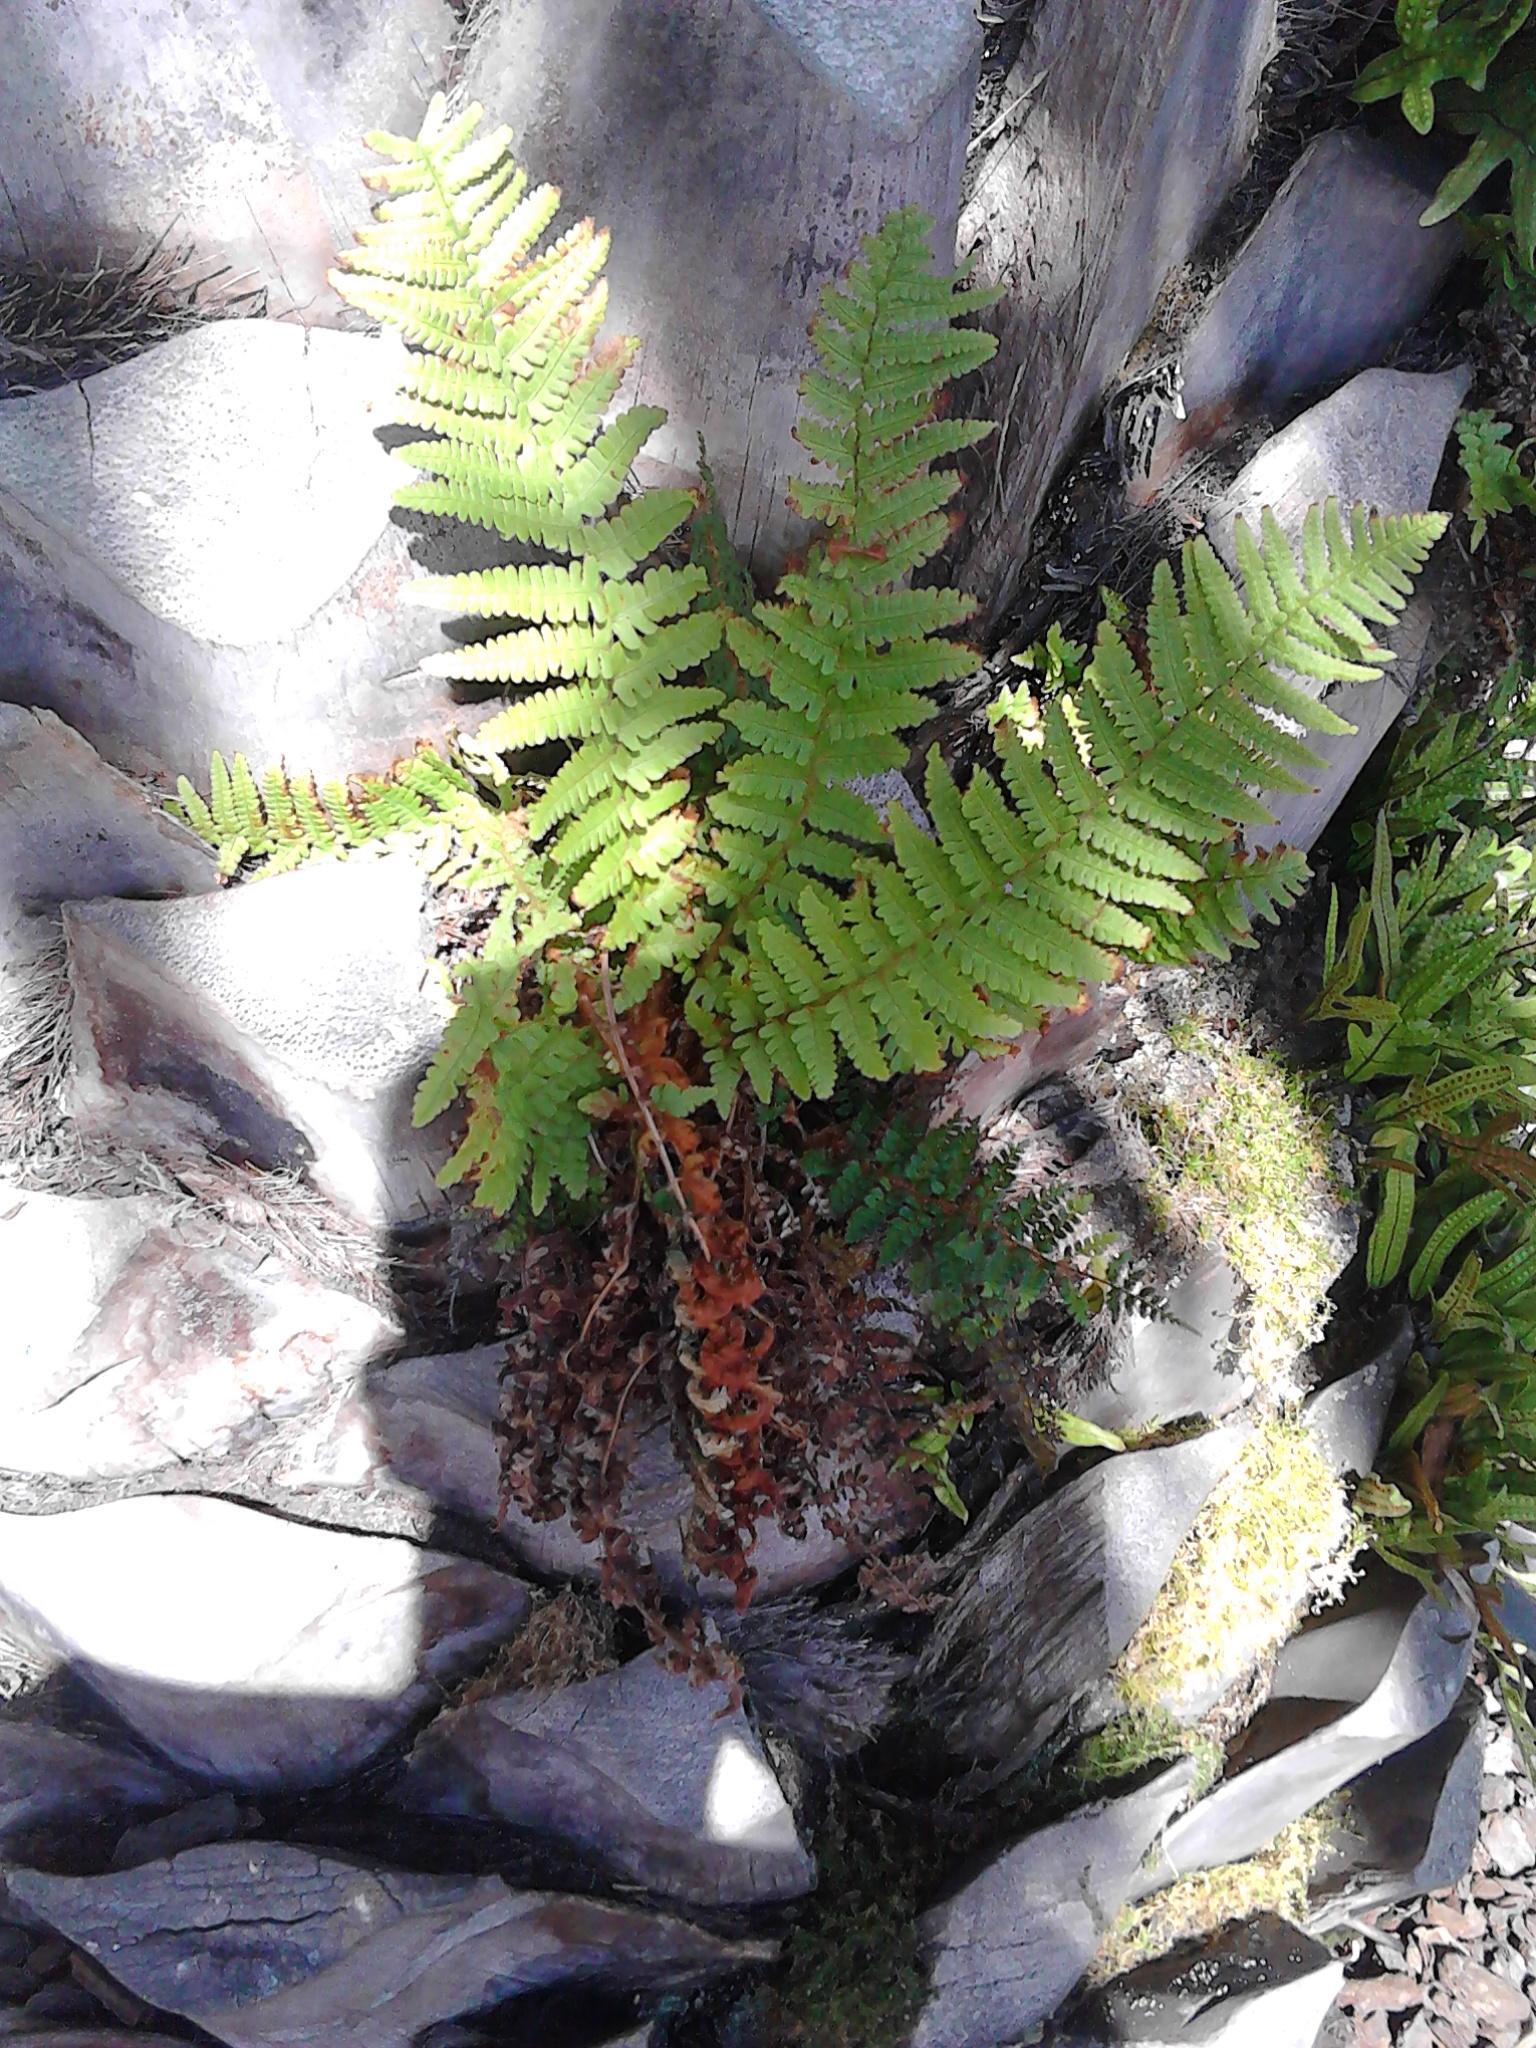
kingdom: Plantae
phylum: Tracheophyta
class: Polypodiopsida
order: Polypodiales
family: Dryopteridaceae
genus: Dryopteris
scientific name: Dryopteris filix-mas
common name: Male fern
